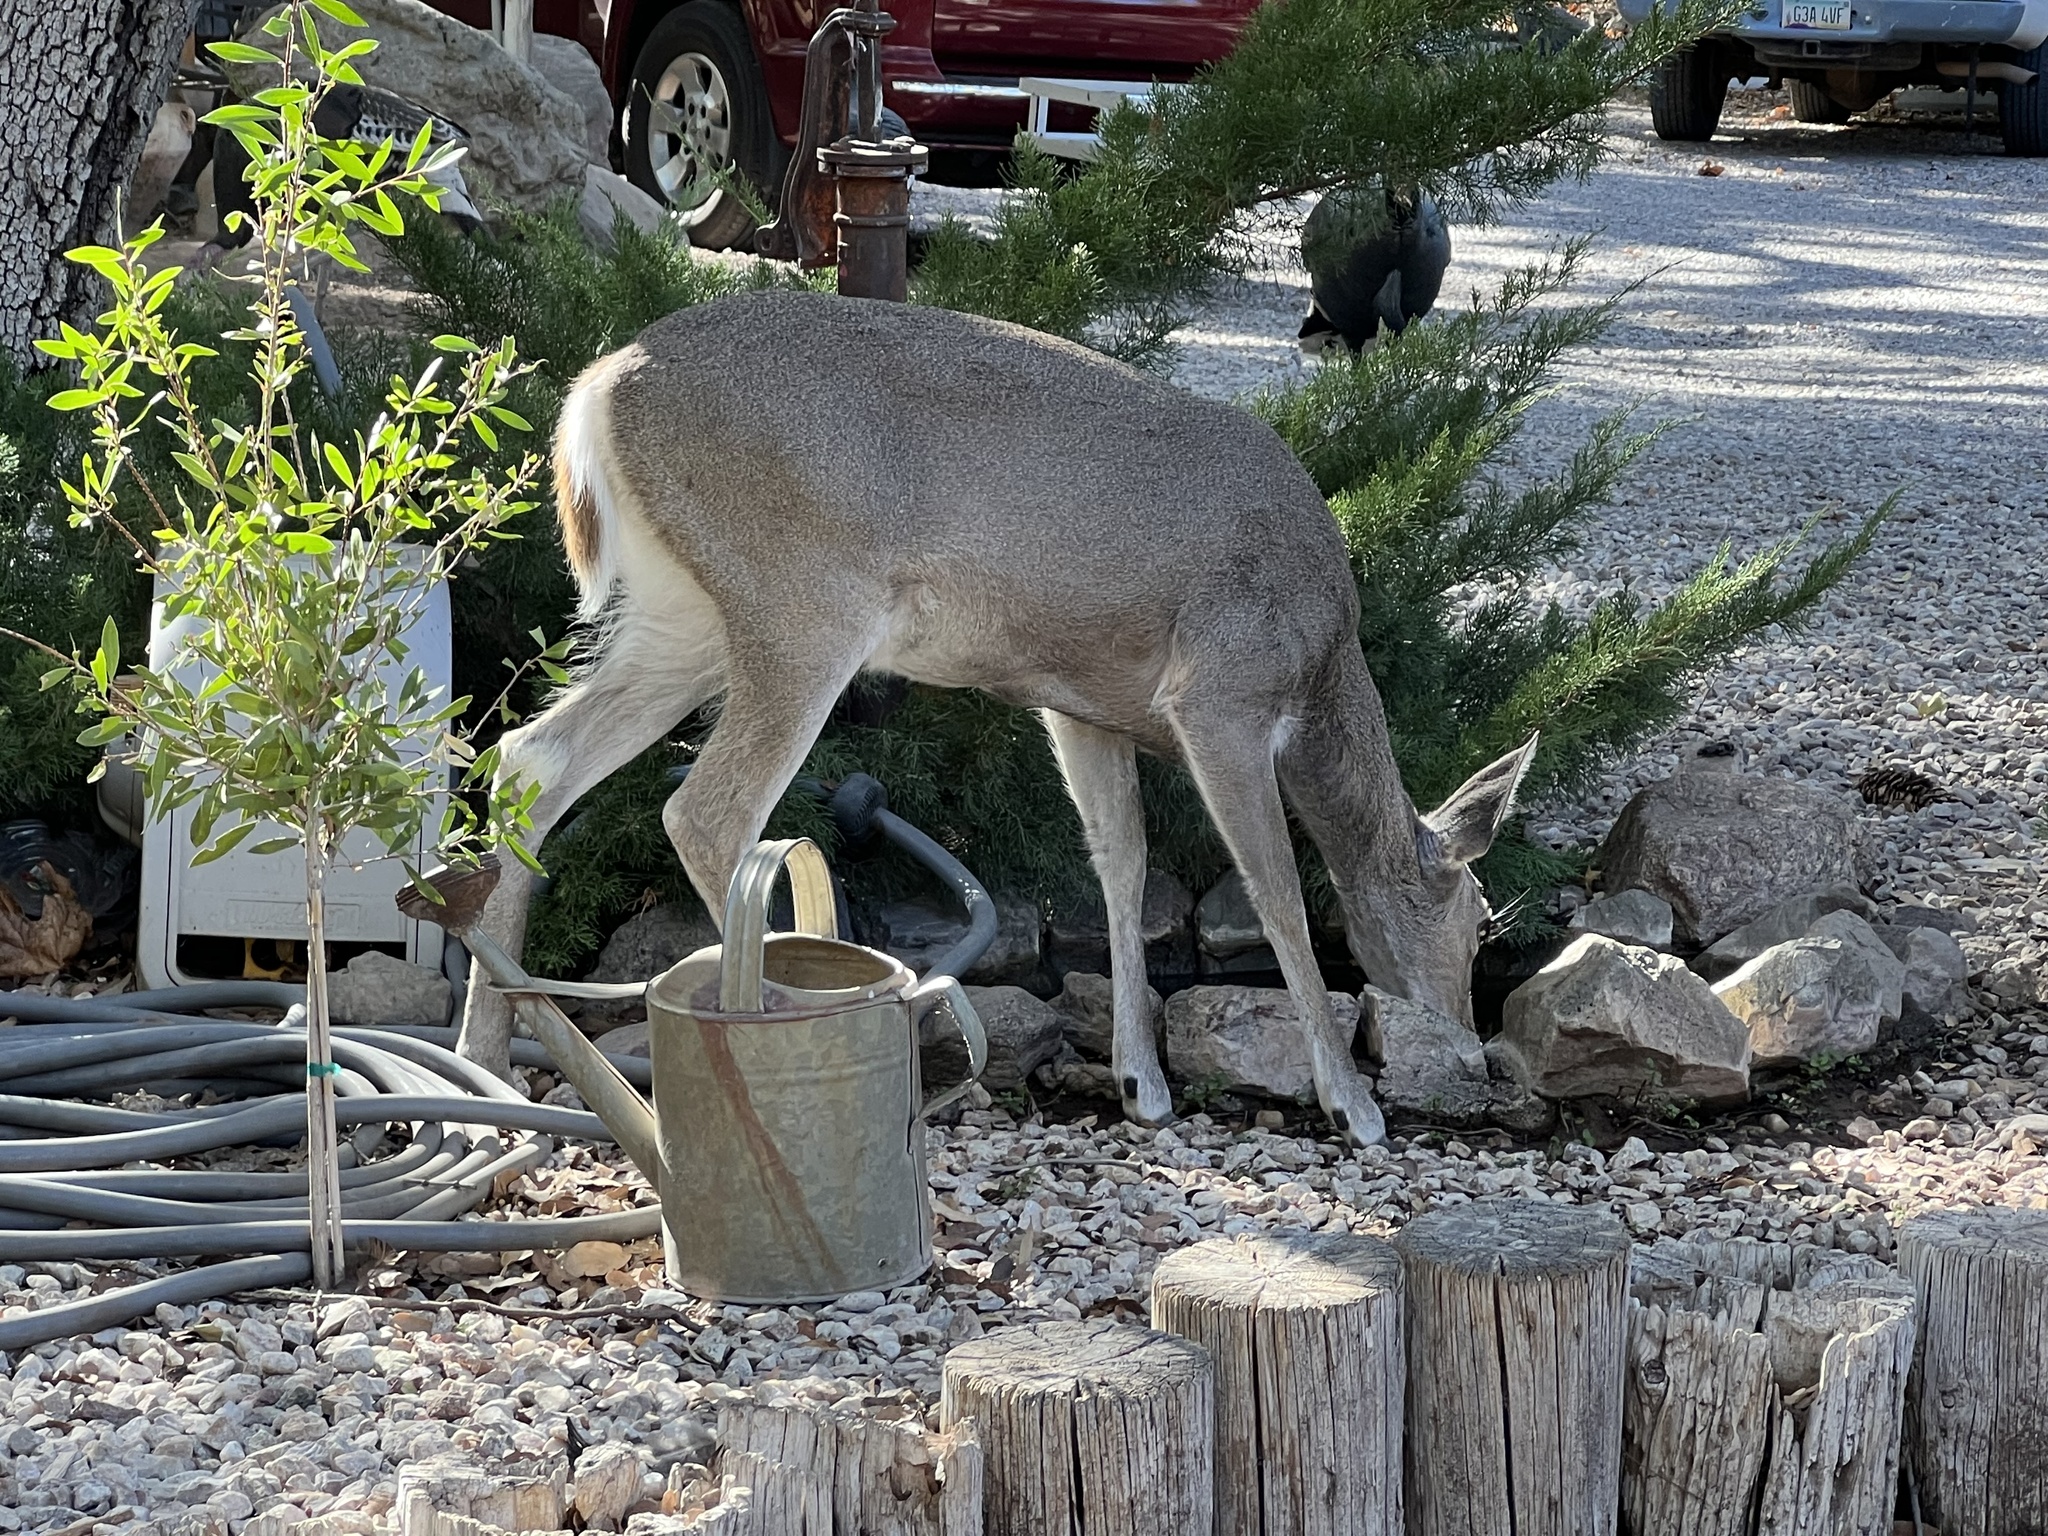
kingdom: Animalia
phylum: Chordata
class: Mammalia
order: Artiodactyla
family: Cervidae
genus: Odocoileus
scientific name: Odocoileus virginianus
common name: White-tailed deer
